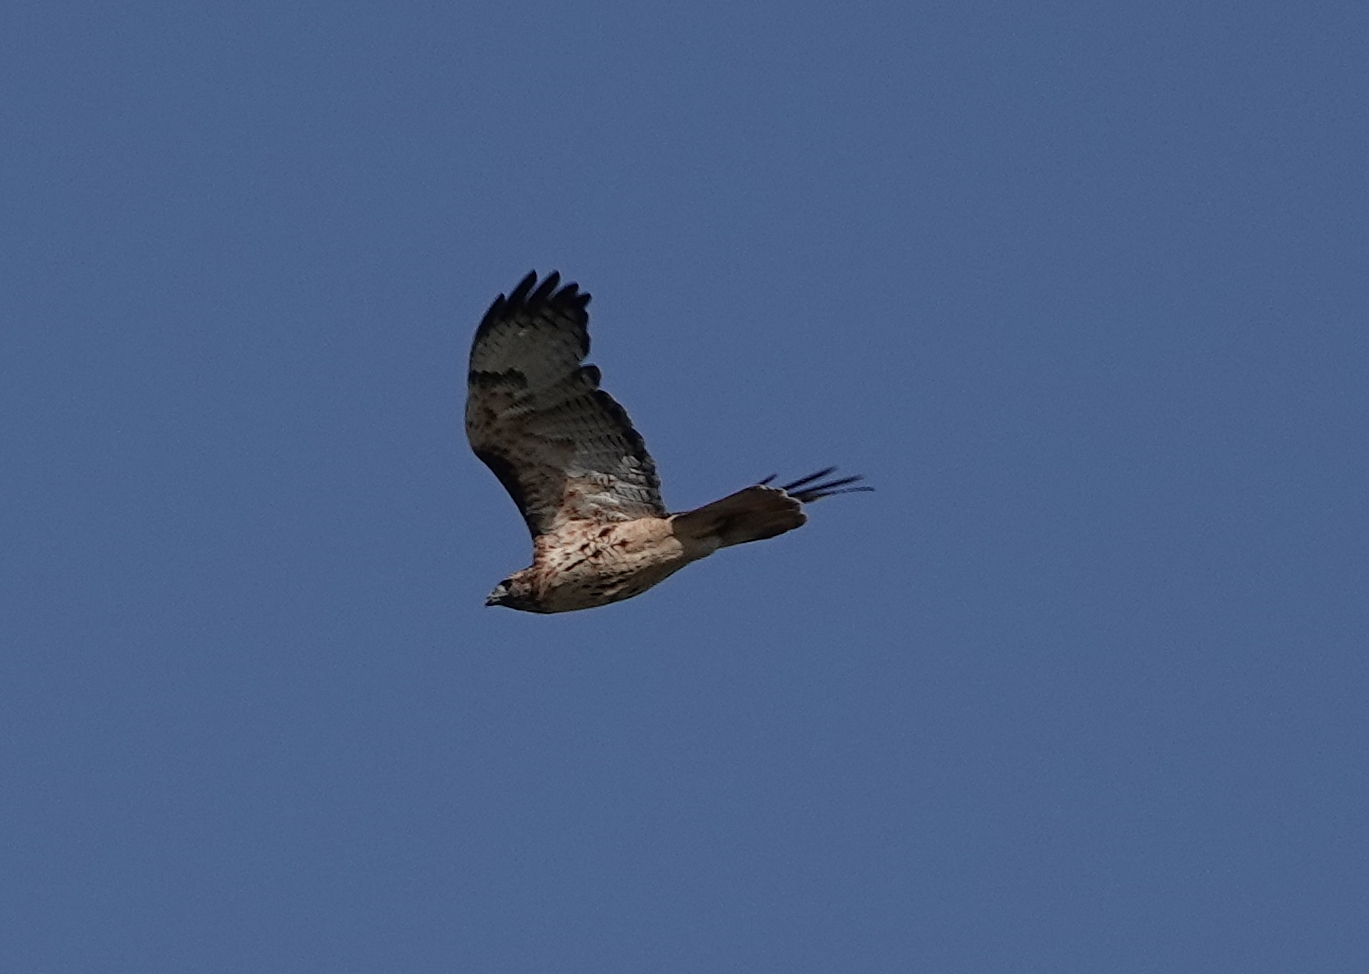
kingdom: Animalia
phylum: Chordata
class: Aves
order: Accipitriformes
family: Accipitridae
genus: Buteo
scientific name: Buteo jamaicensis
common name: Red-tailed hawk
